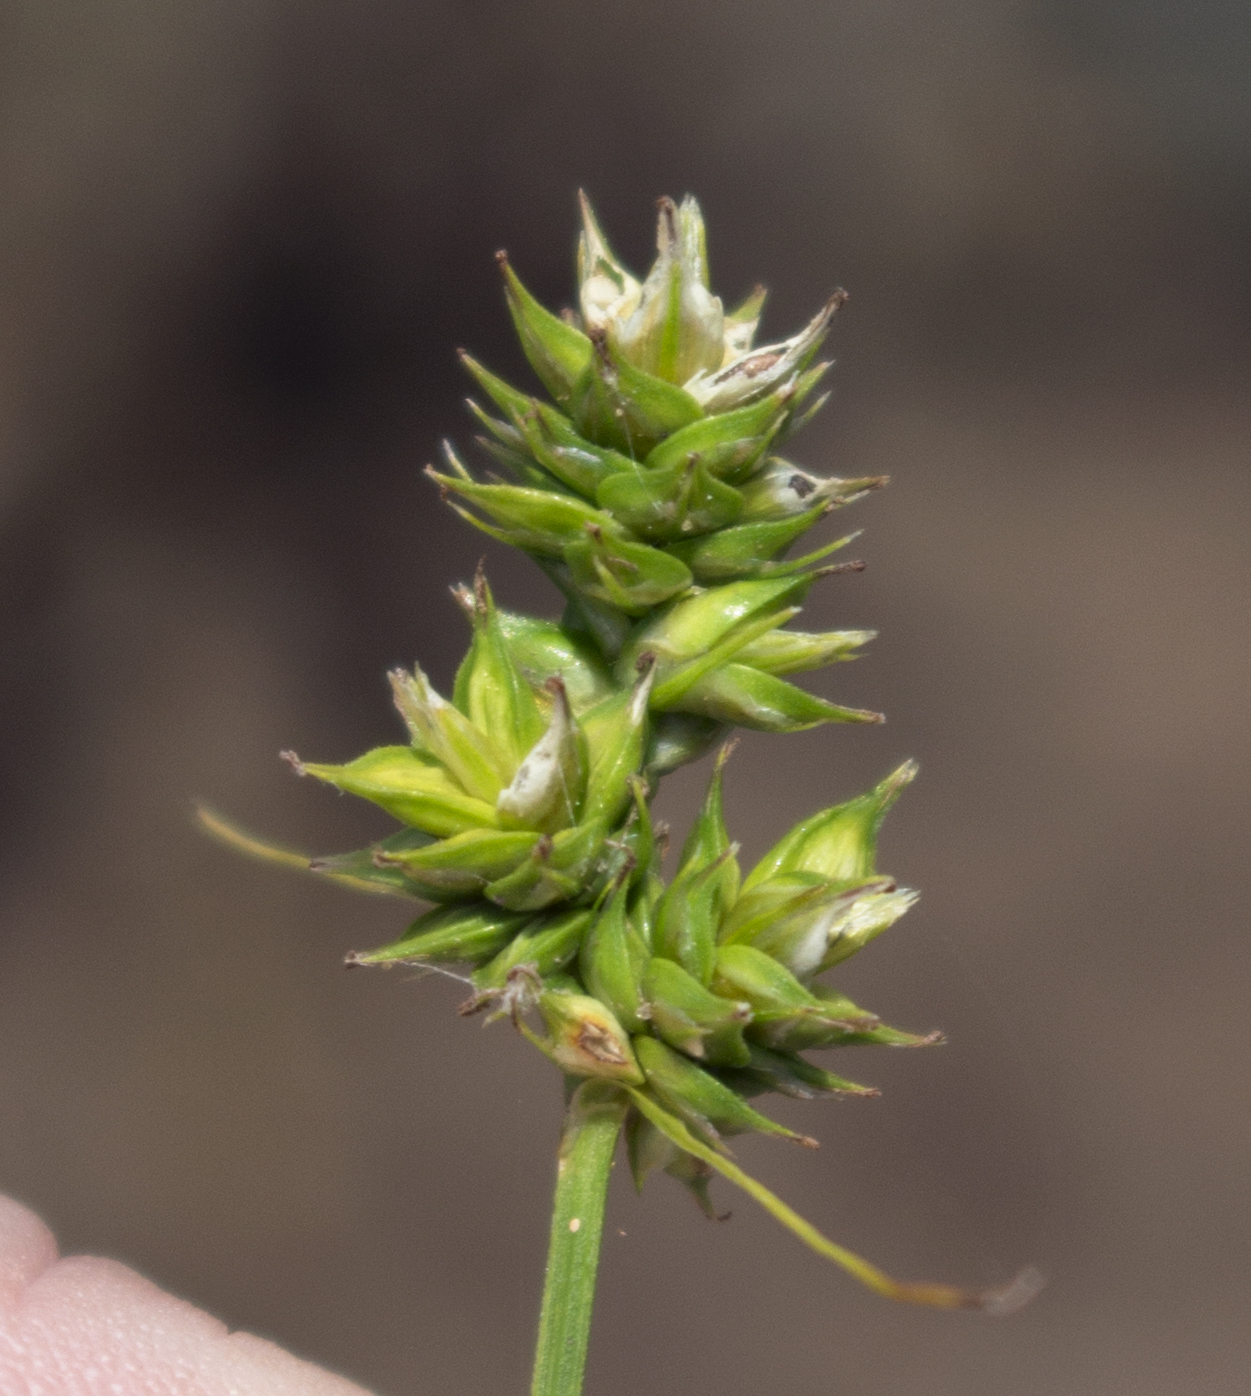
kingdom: Plantae
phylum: Tracheophyta
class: Liliopsida
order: Poales
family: Cyperaceae
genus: Carex
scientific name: Carex muehlenbergii
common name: Muhlenberg's bracted sedge
